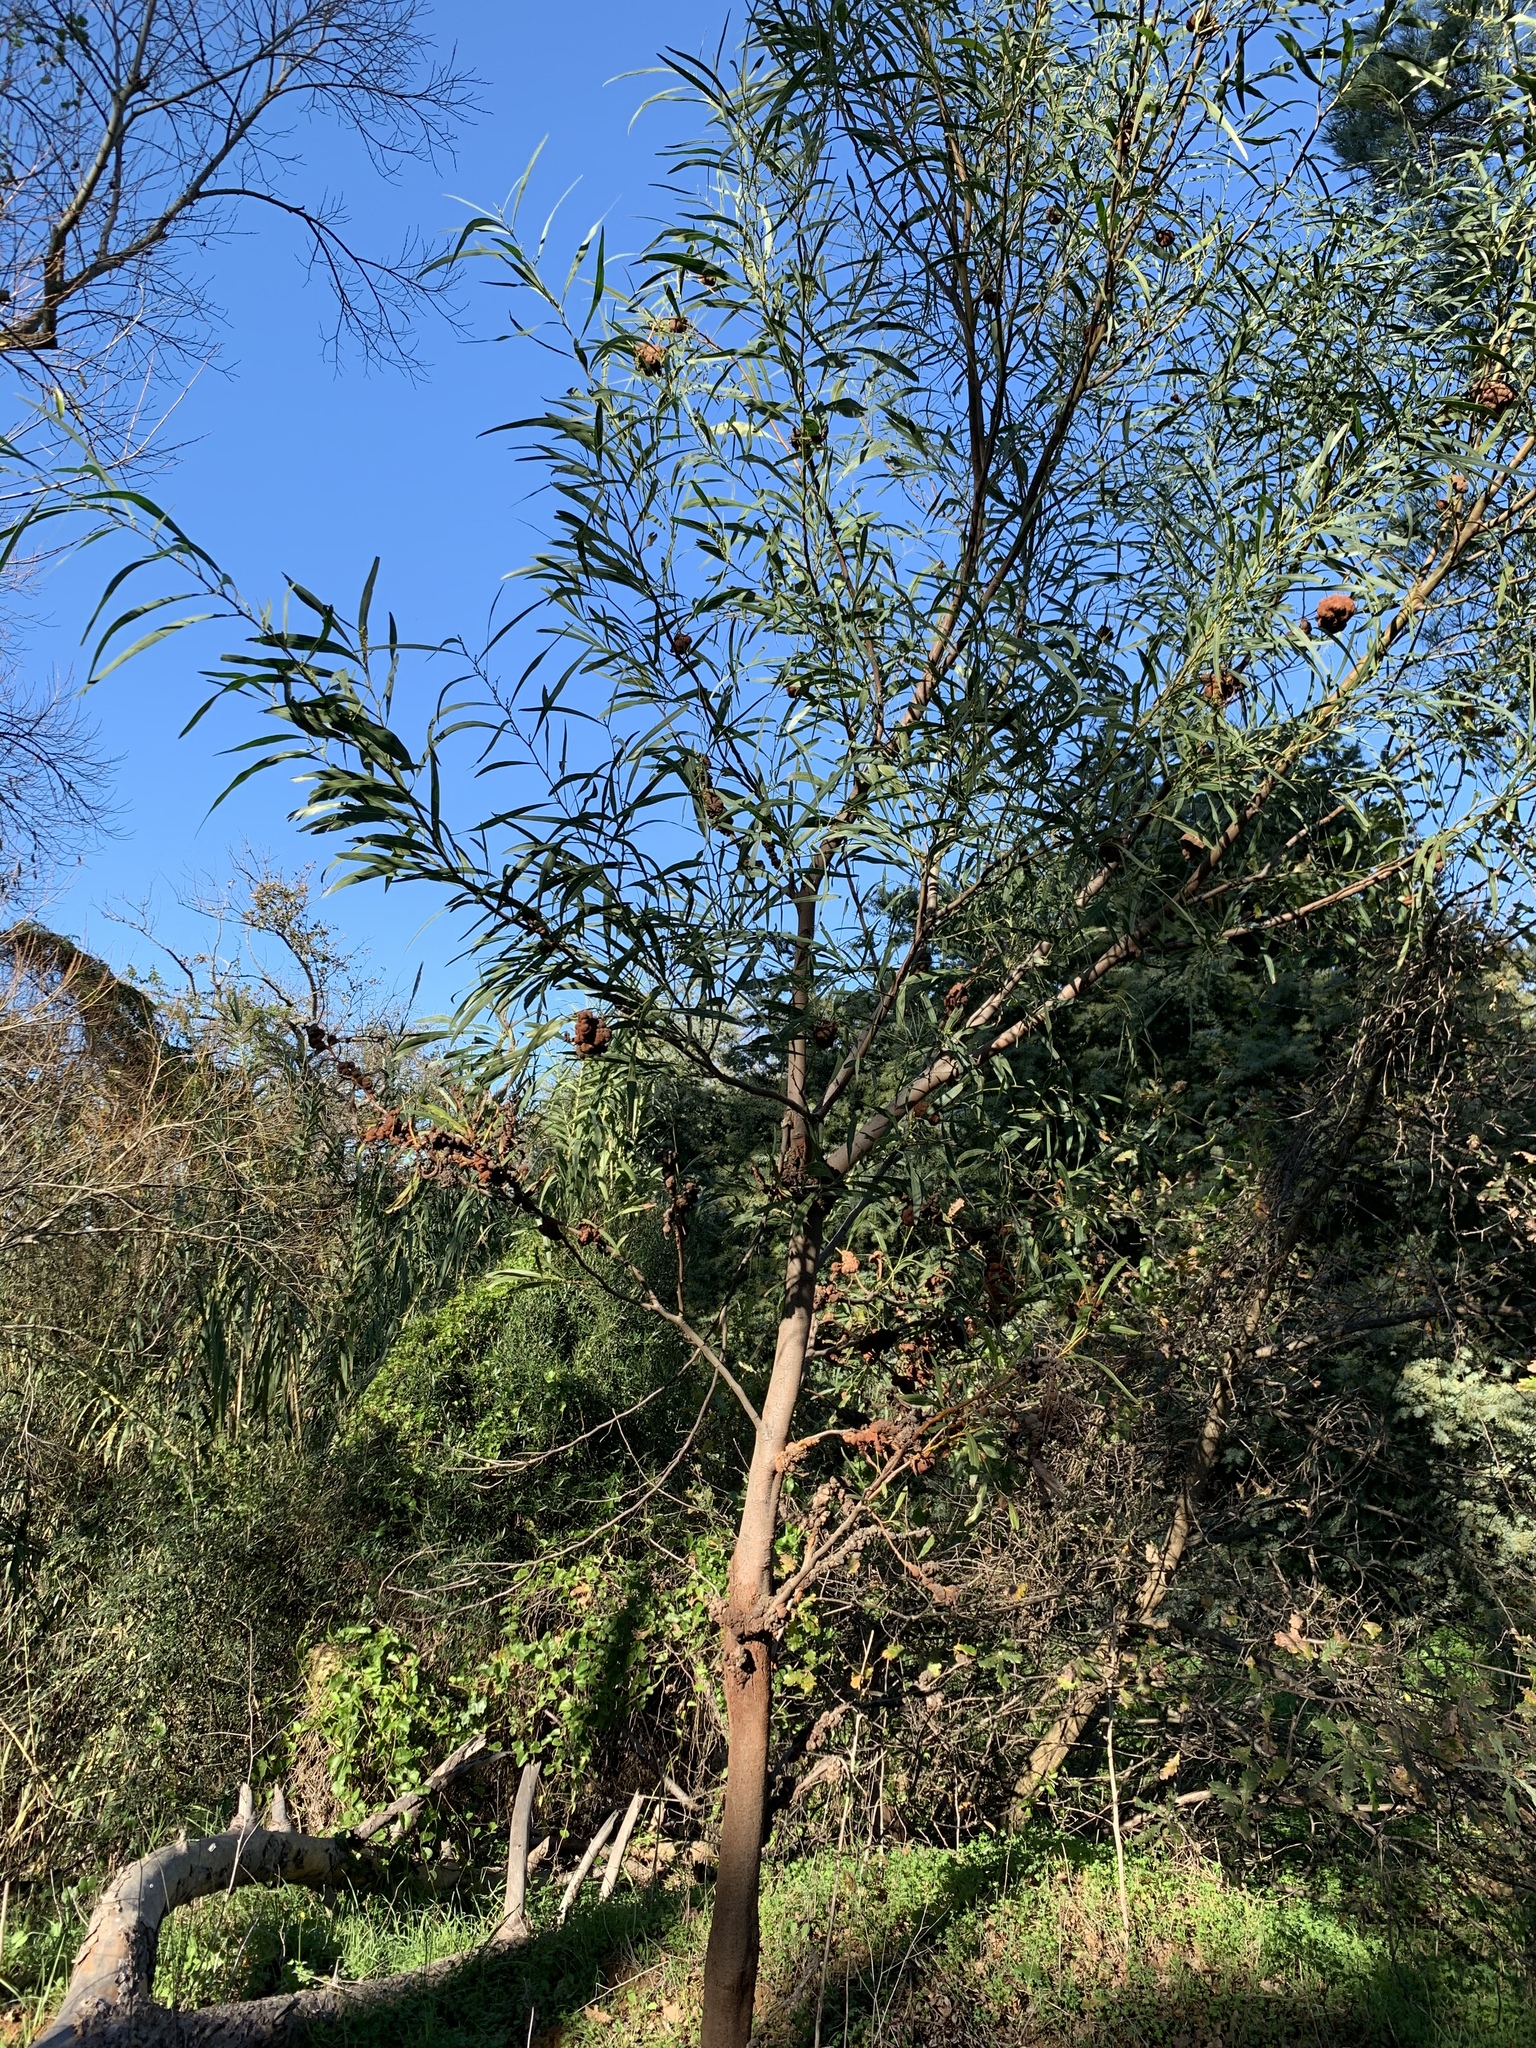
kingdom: Plantae
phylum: Tracheophyta
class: Magnoliopsida
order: Fabales
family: Fabaceae
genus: Acacia
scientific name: Acacia saligna
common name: Orange wattle
